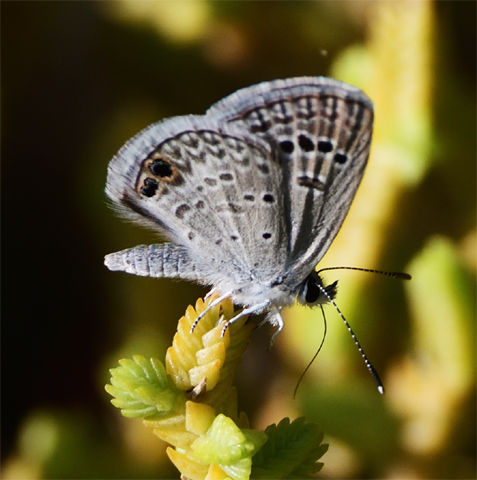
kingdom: Animalia
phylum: Arthropoda
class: Insecta
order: Lepidoptera
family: Lycaenidae
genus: Echinargus
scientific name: Echinargus isola
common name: Reakirt's blue
